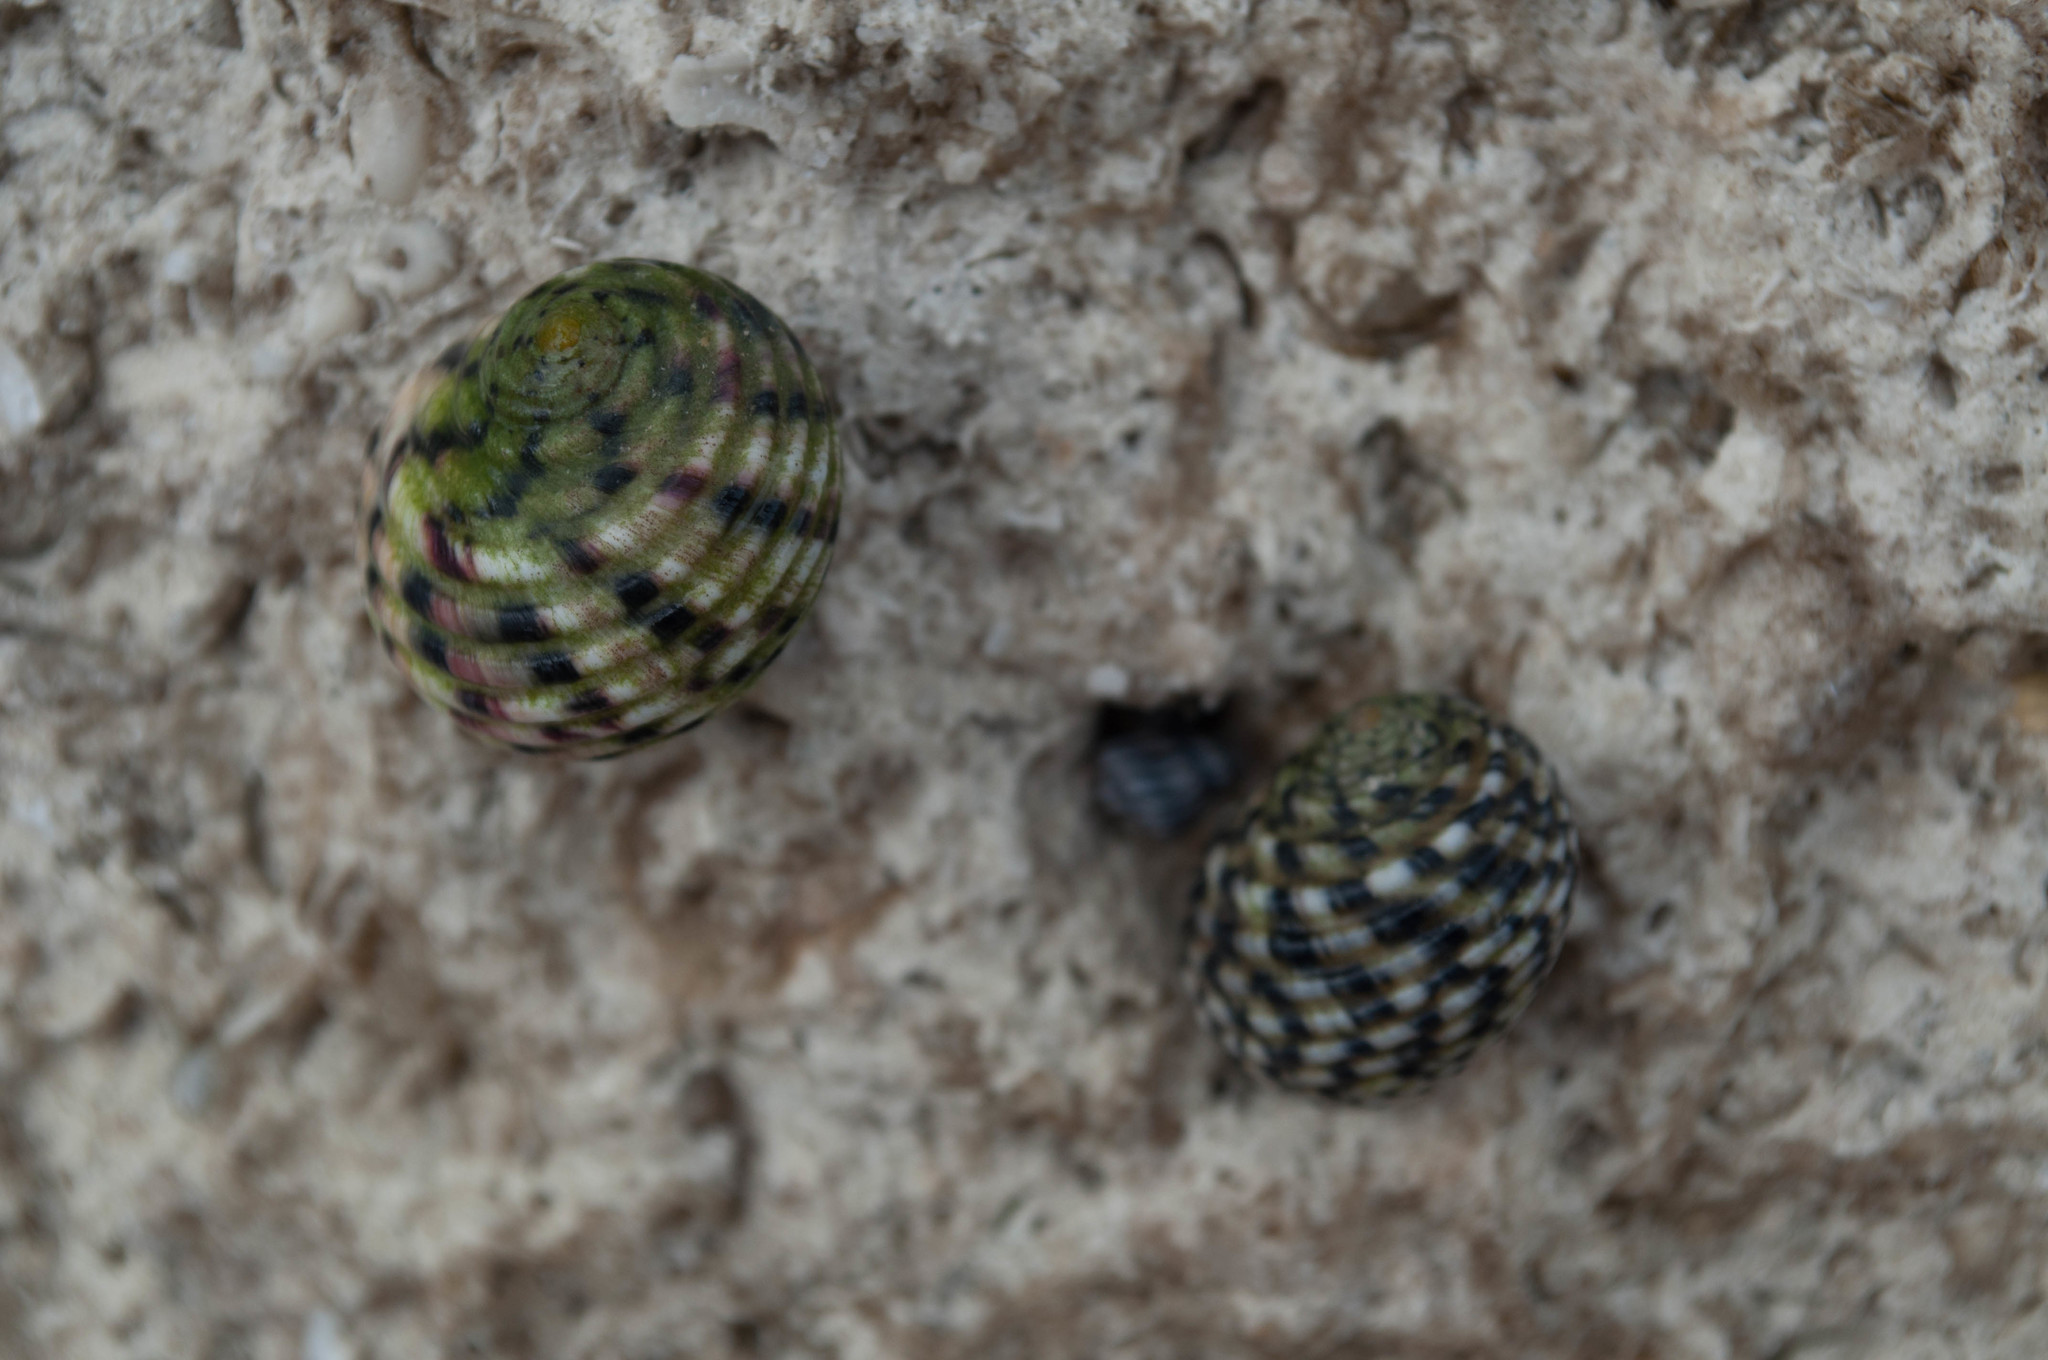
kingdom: Animalia
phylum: Mollusca
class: Gastropoda
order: Cycloneritida
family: Neritidae
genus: Nerita
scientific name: Nerita versicolor
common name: Four-tooth nerite
